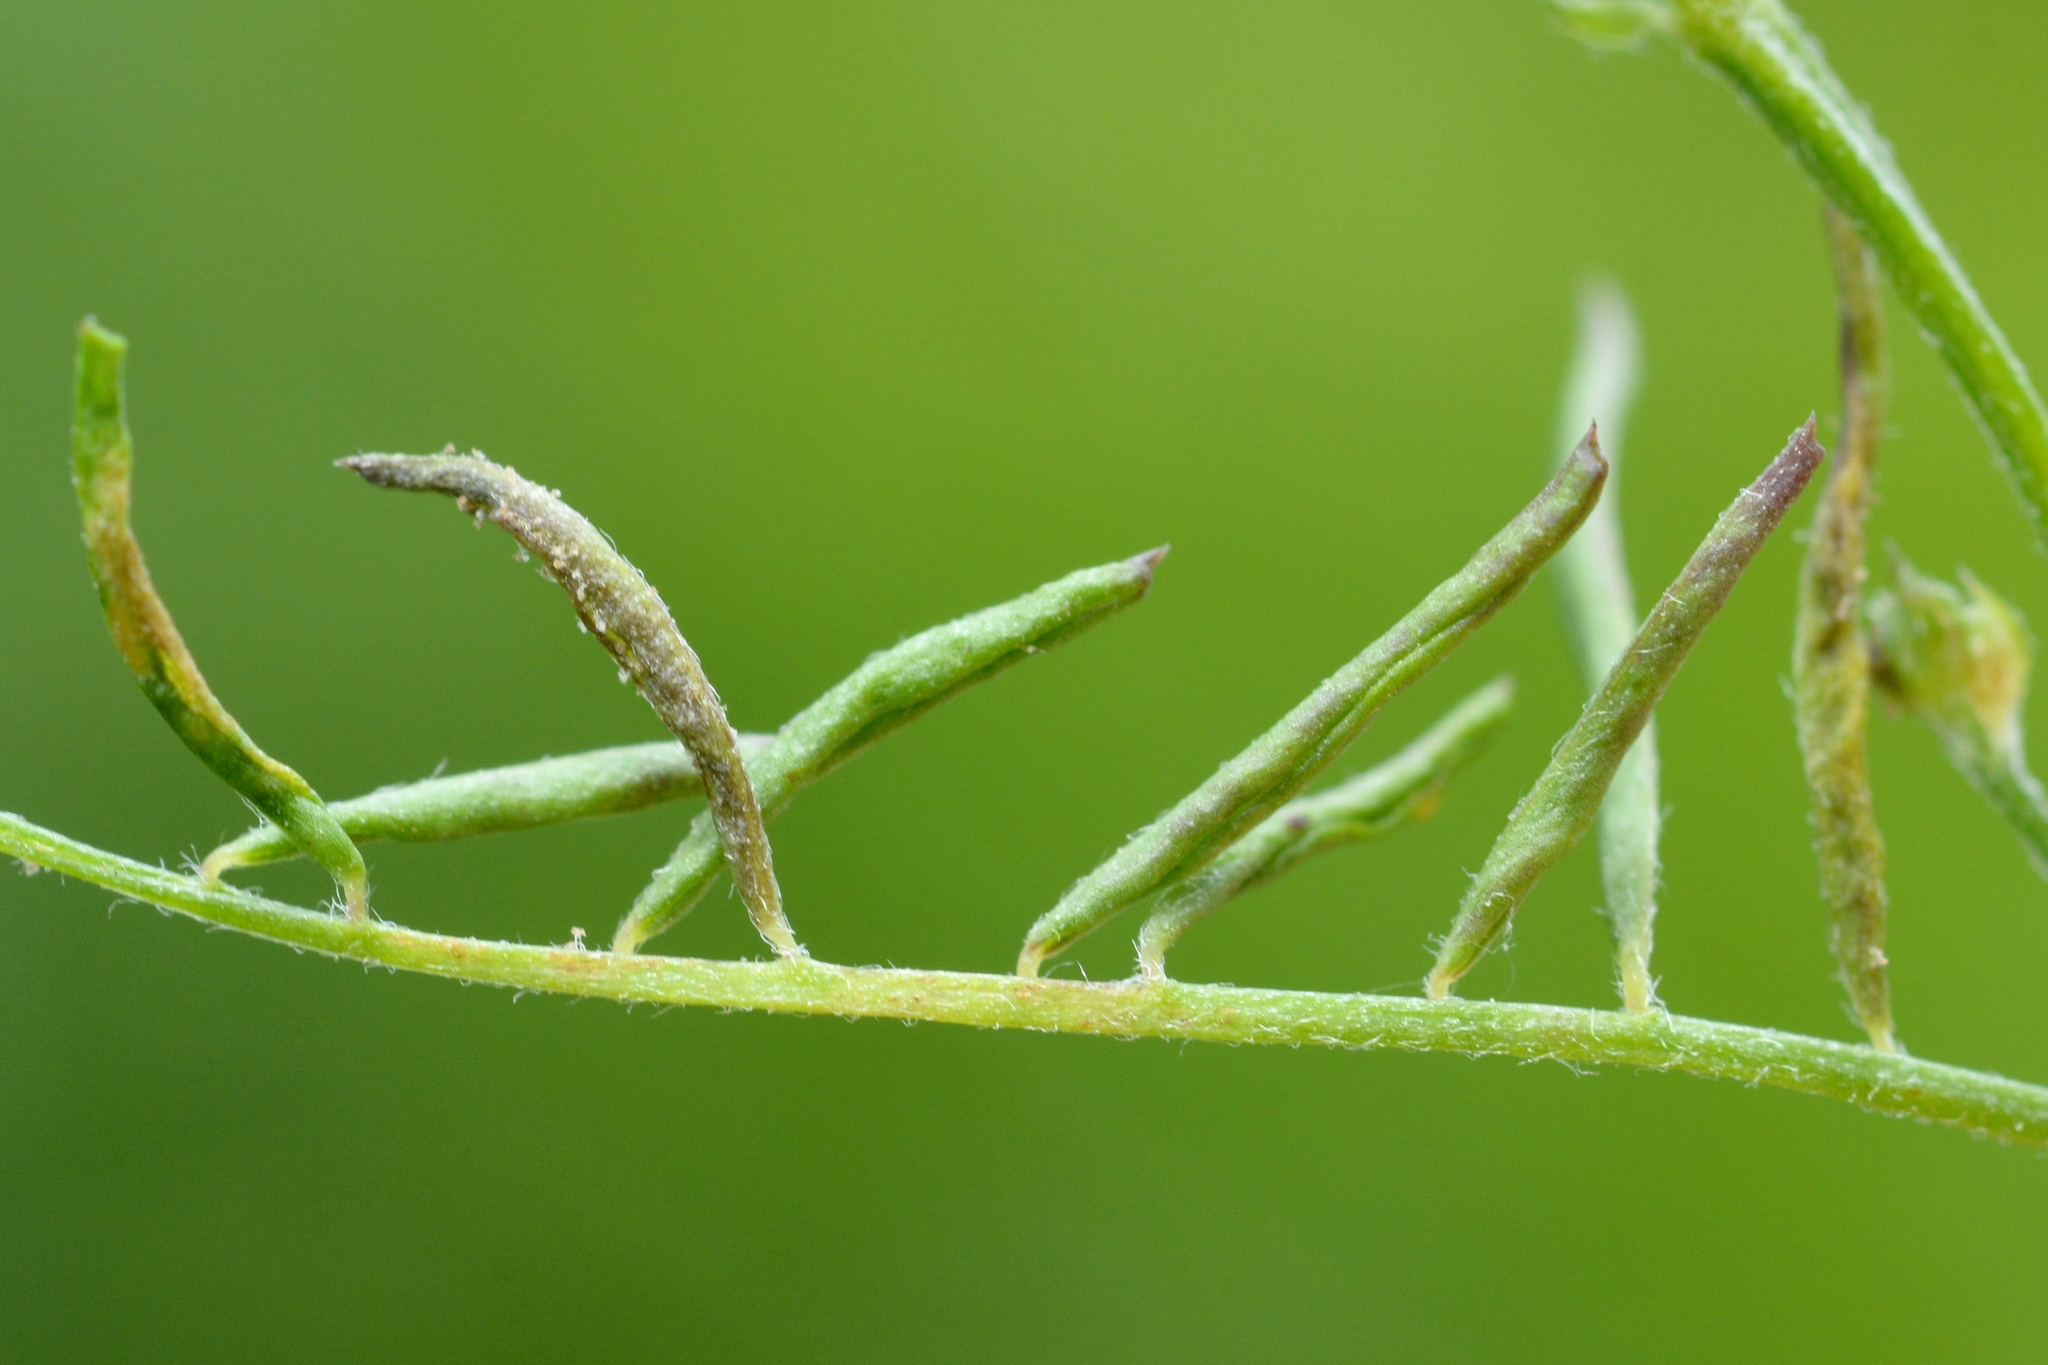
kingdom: Animalia
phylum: Arthropoda
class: Arachnida
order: Trombidiformes
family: Eriophyidae
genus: Aceria
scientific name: Aceria trifolii
